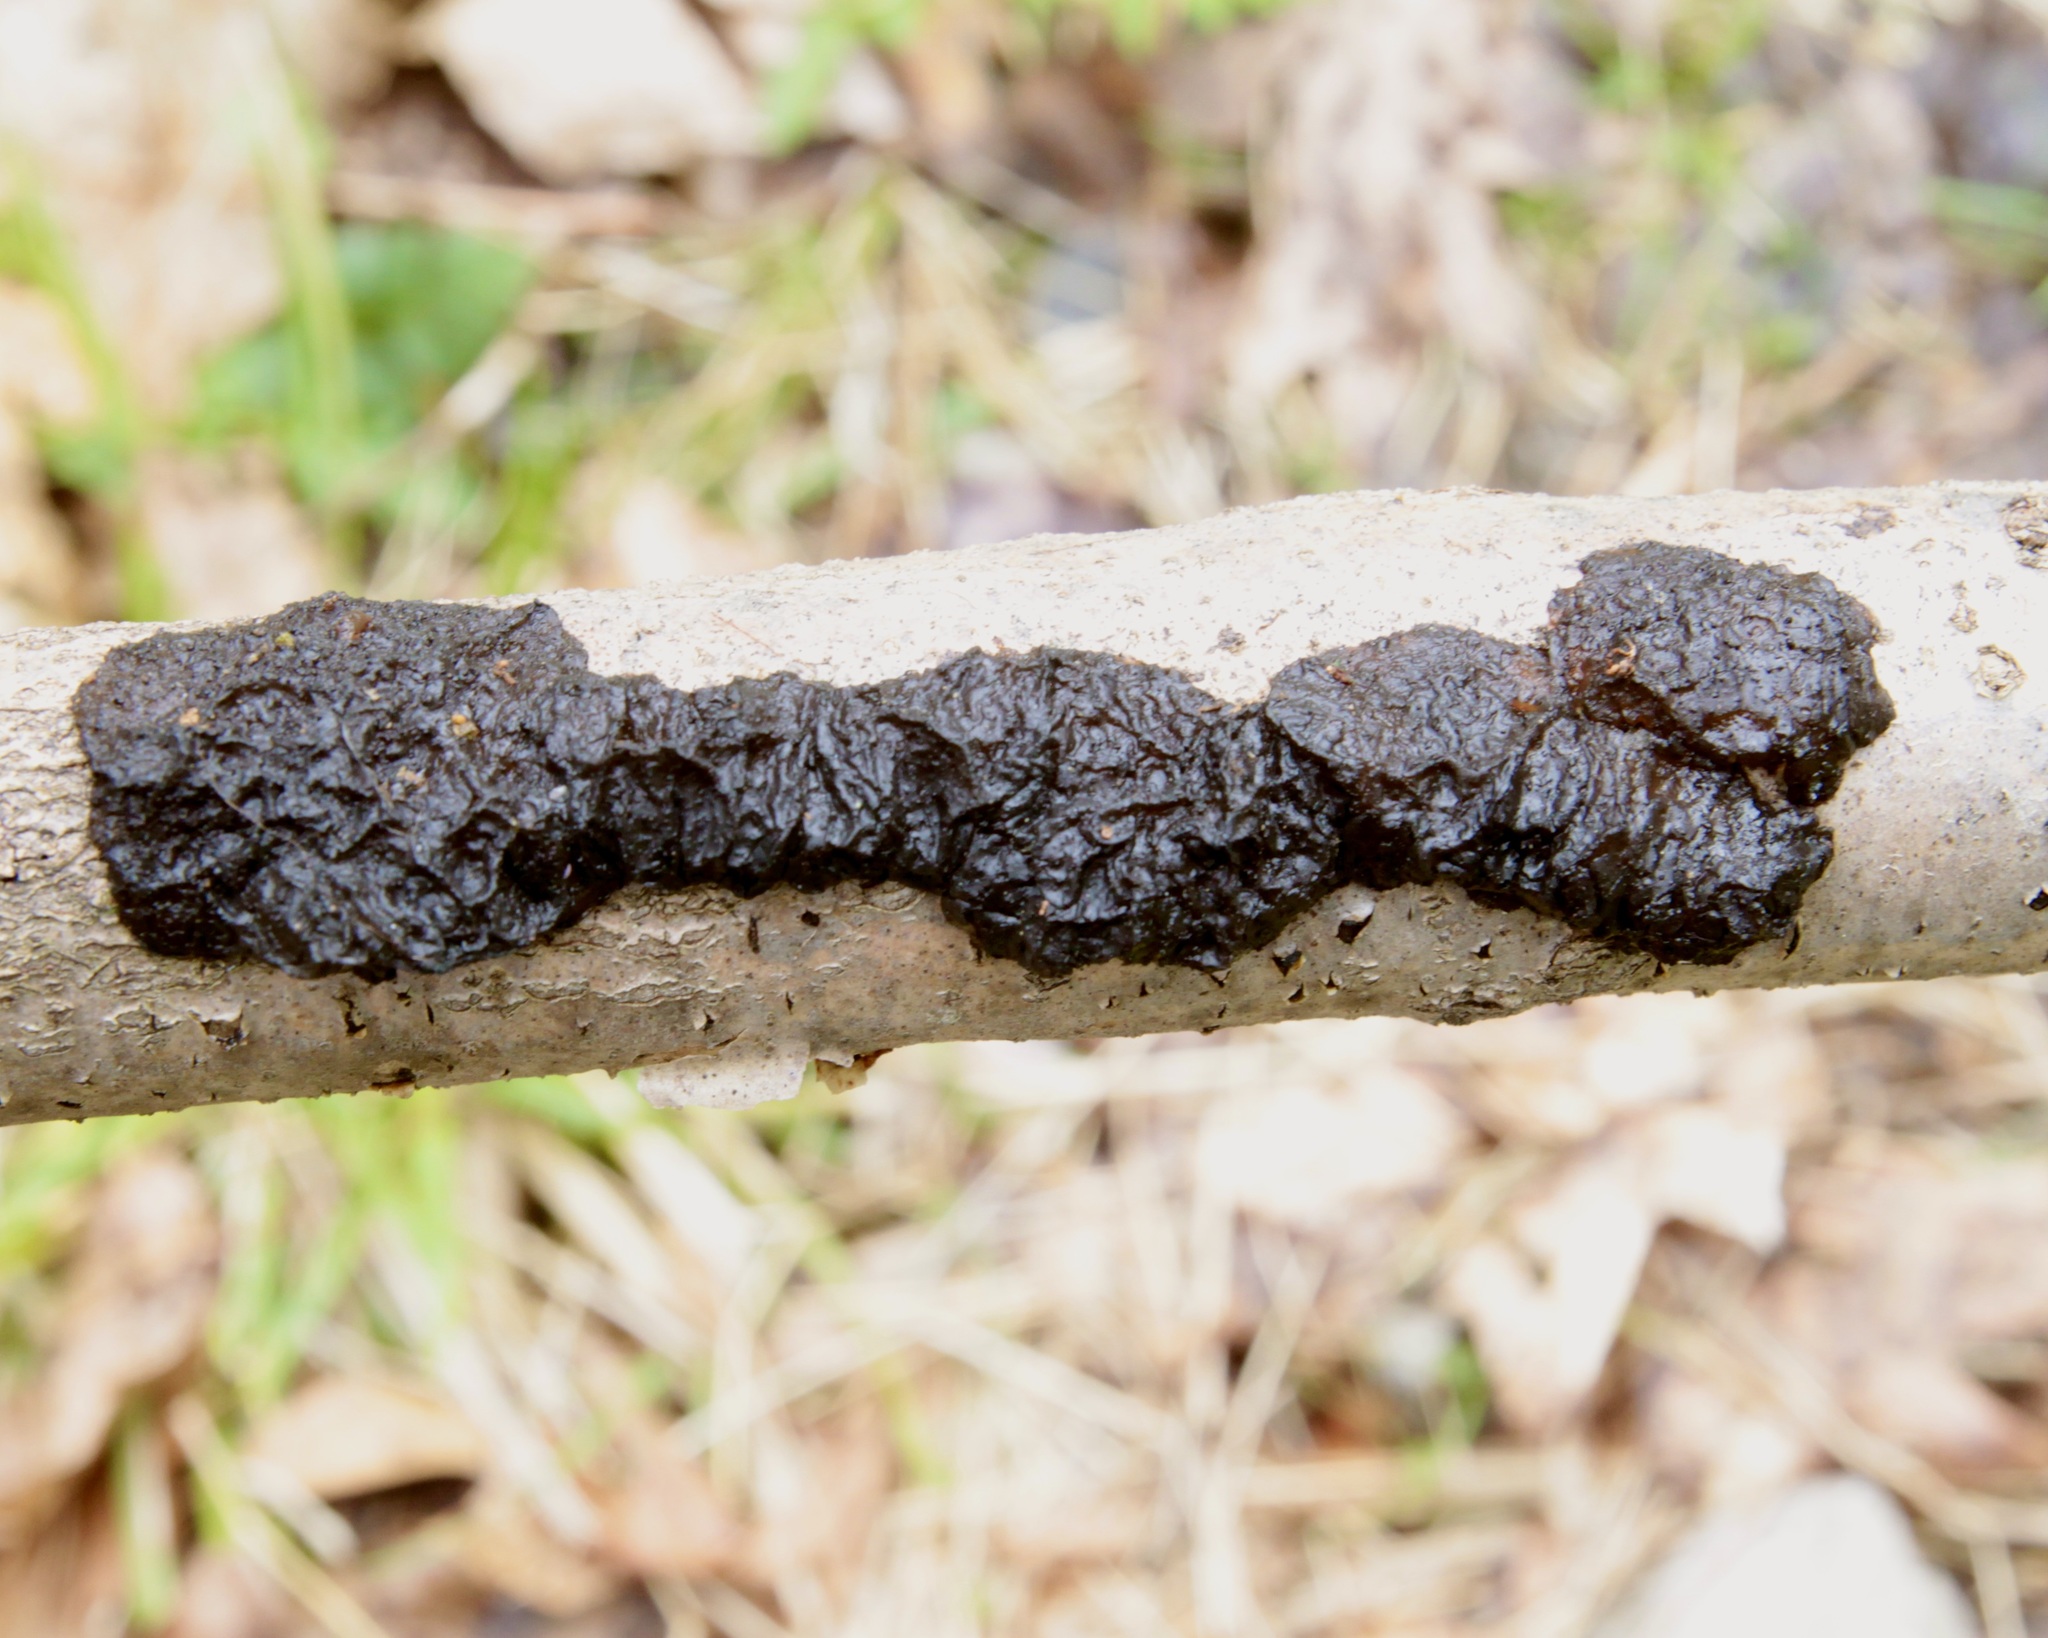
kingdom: Fungi
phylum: Basidiomycota
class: Agaricomycetes
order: Auriculariales
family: Auriculariaceae
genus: Exidia
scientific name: Exidia nigricans
